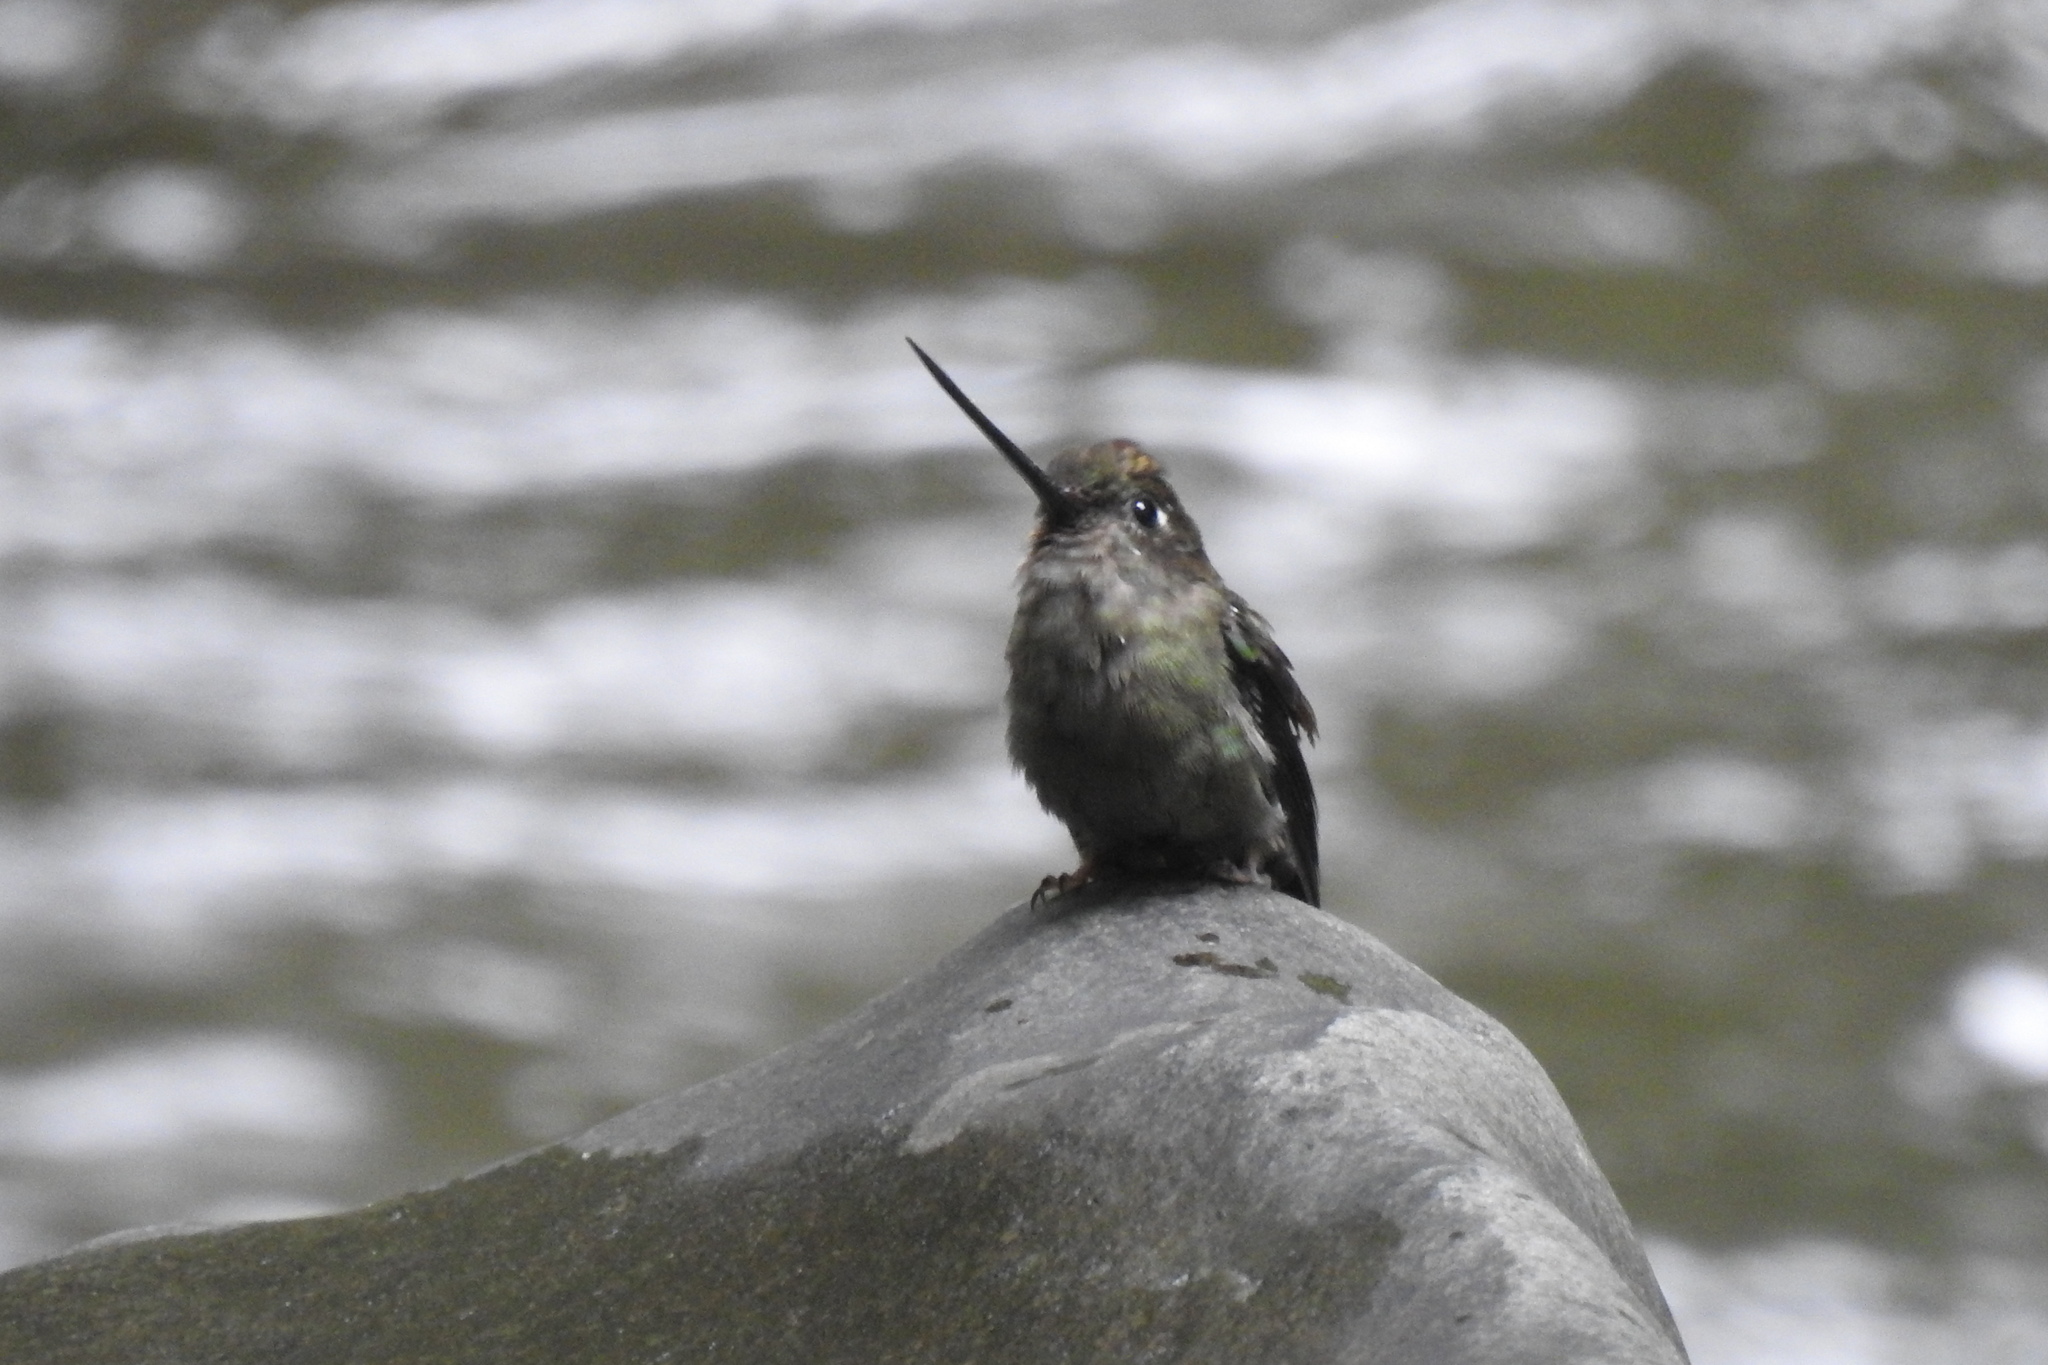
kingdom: Animalia
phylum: Chordata
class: Aves
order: Apodiformes
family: Trochilidae
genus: Doryfera
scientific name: Doryfera ludovicae
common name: Green-fronted lancebill
